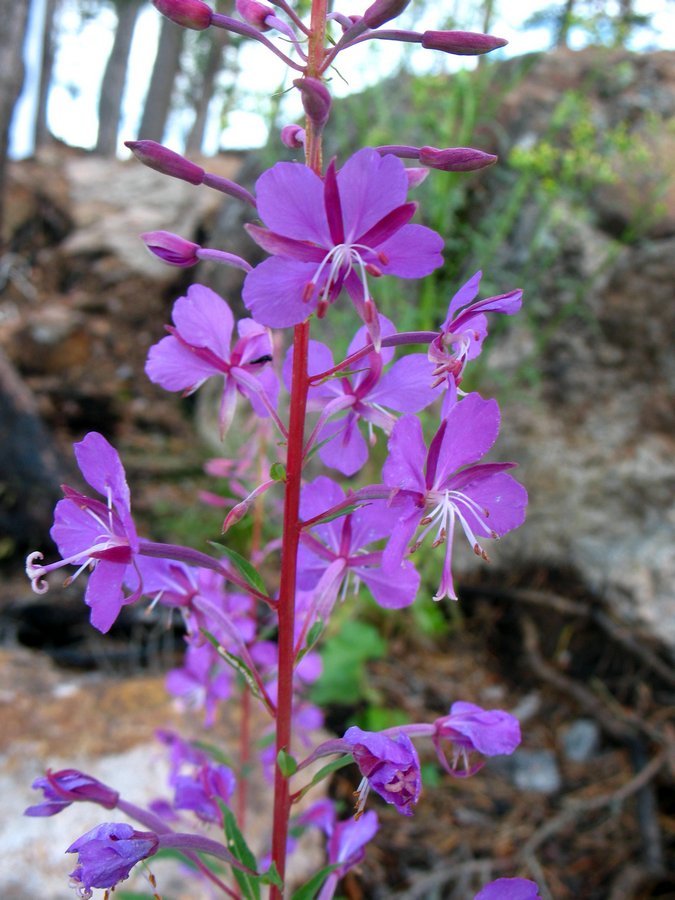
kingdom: Plantae
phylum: Tracheophyta
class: Magnoliopsida
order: Myrtales
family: Onagraceae
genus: Chamaenerion
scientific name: Chamaenerion angustifolium
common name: Fireweed
